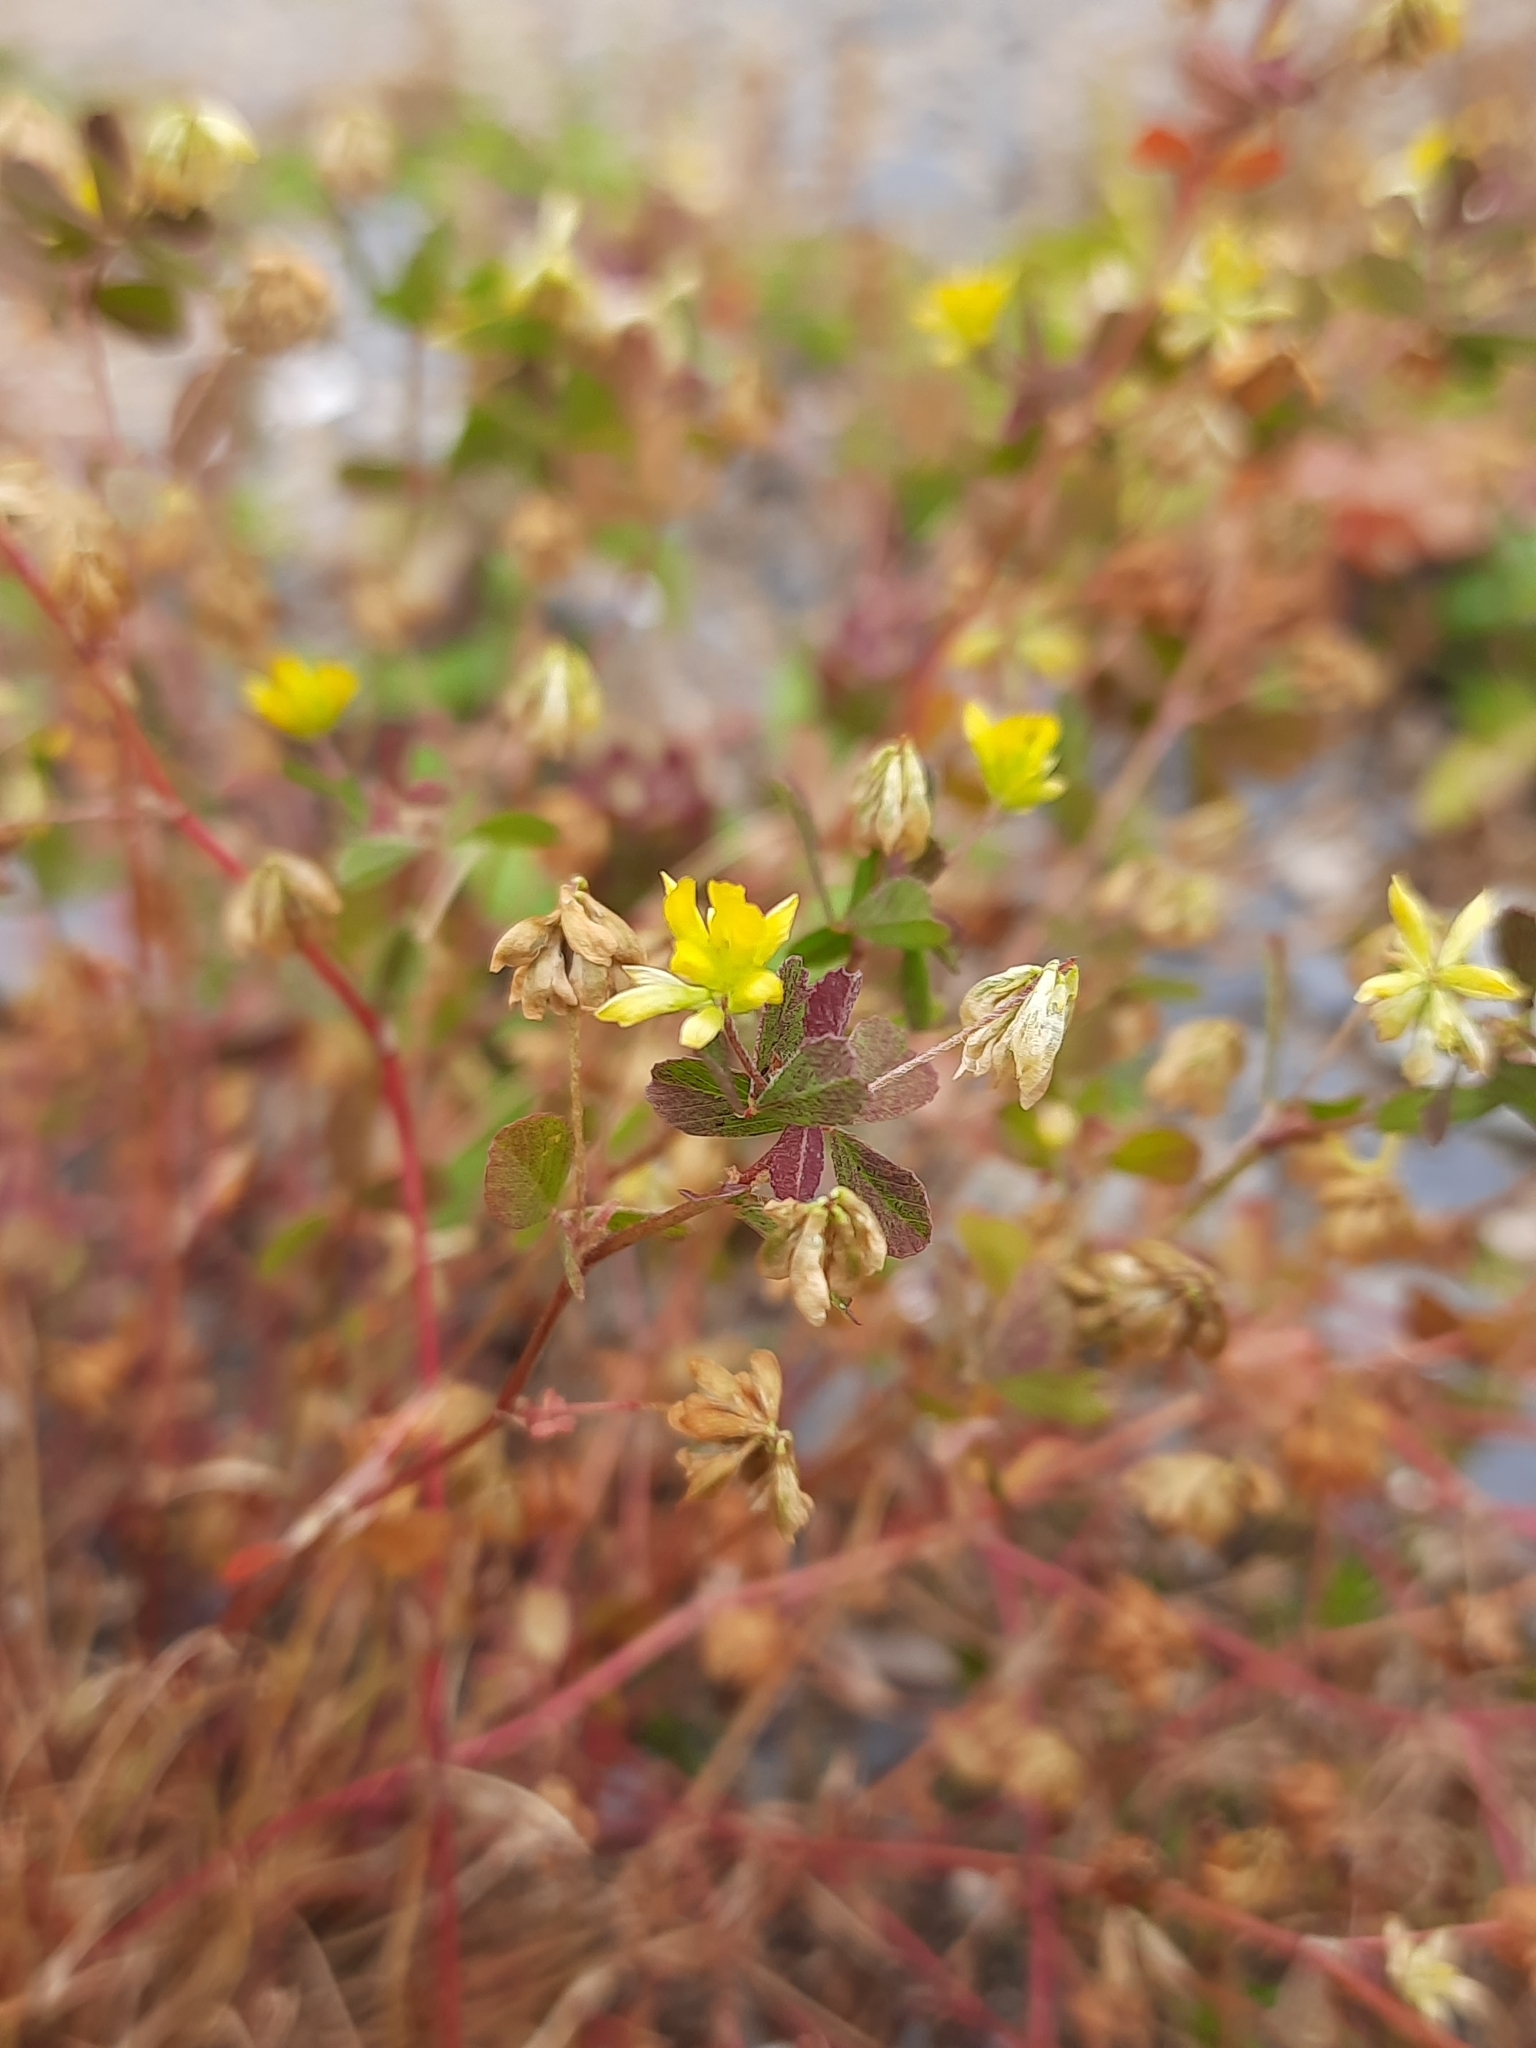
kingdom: Plantae
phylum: Tracheophyta
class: Magnoliopsida
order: Fabales
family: Fabaceae
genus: Trifolium
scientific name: Trifolium dubium
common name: Suckling clover
